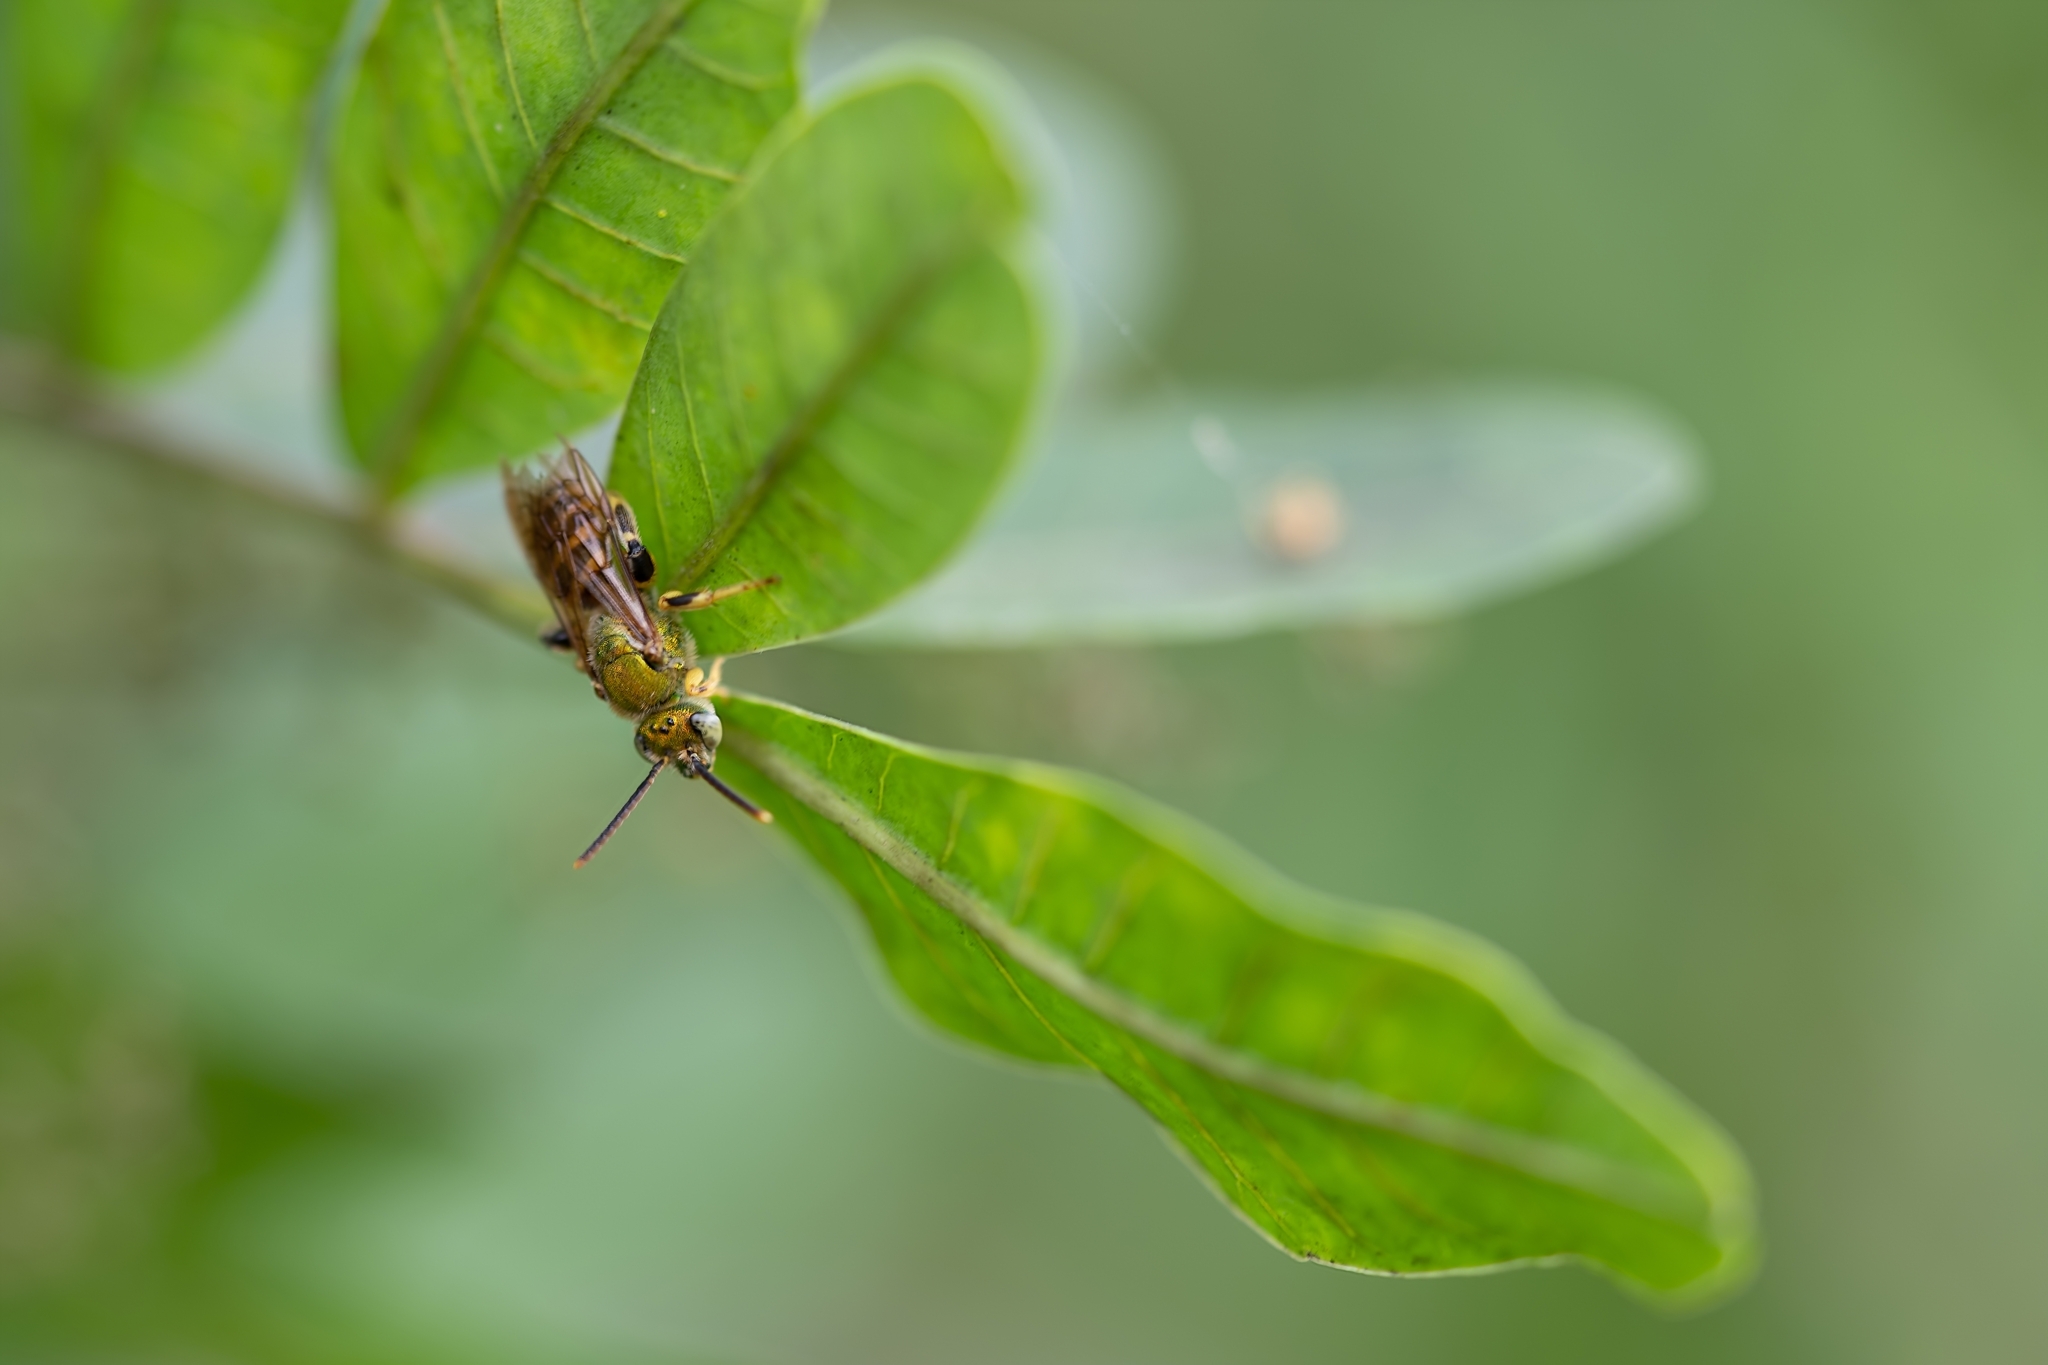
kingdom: Animalia
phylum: Arthropoda
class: Insecta
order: Hymenoptera
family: Halictidae
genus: Agapostemon
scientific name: Agapostemon splendens
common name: Brown-winged striped sweat bee
